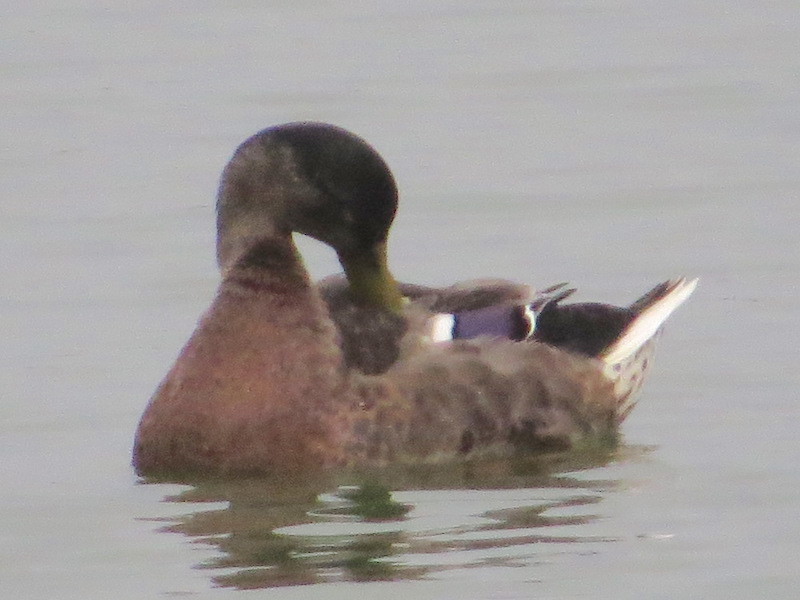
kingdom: Animalia
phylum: Chordata
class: Aves
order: Anseriformes
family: Anatidae
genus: Anas
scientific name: Anas platyrhynchos
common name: Mallard
